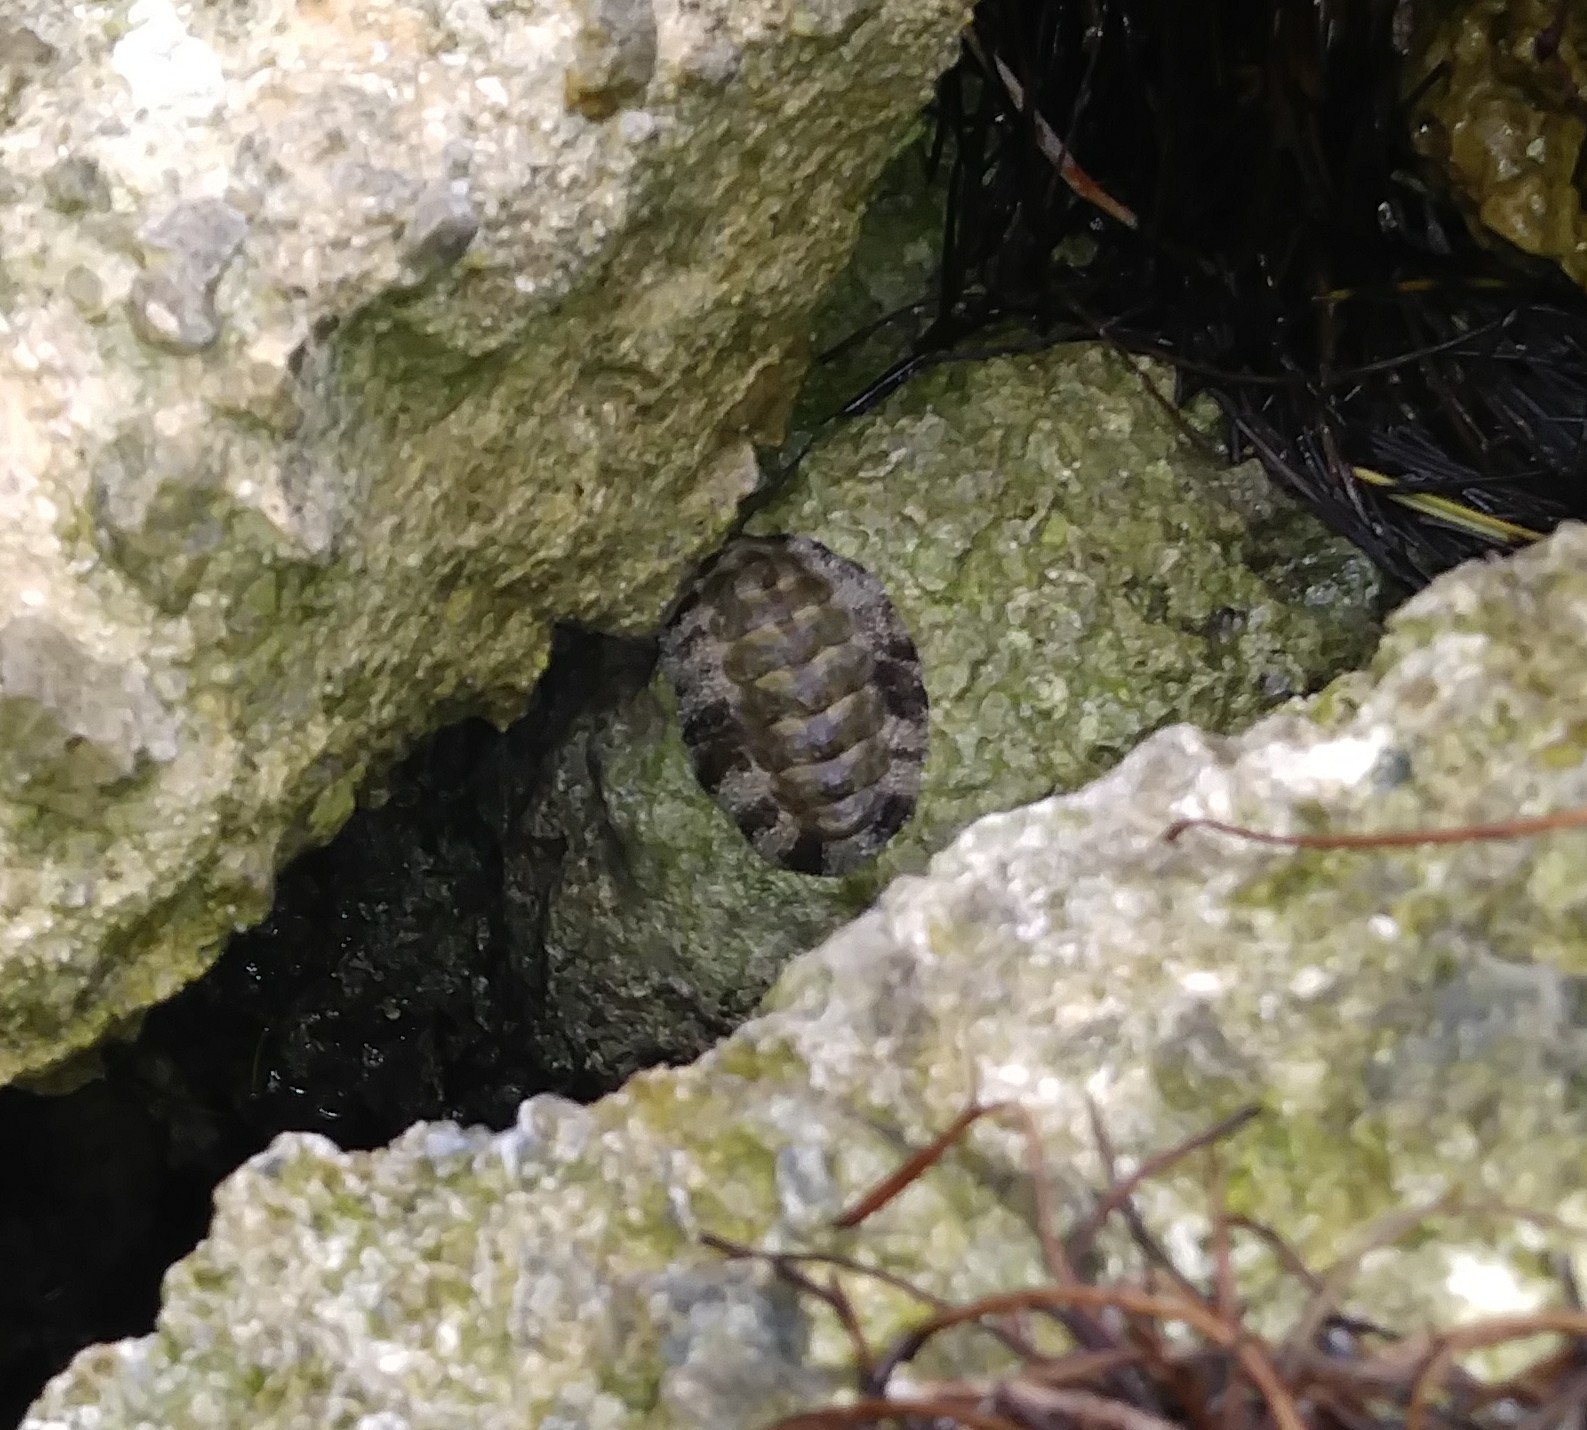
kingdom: Animalia
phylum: Mollusca
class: Polyplacophora
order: Chitonida
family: Chitonidae
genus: Acanthopleura
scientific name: Acanthopleura granulata
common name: West indian fuzzy chiton
